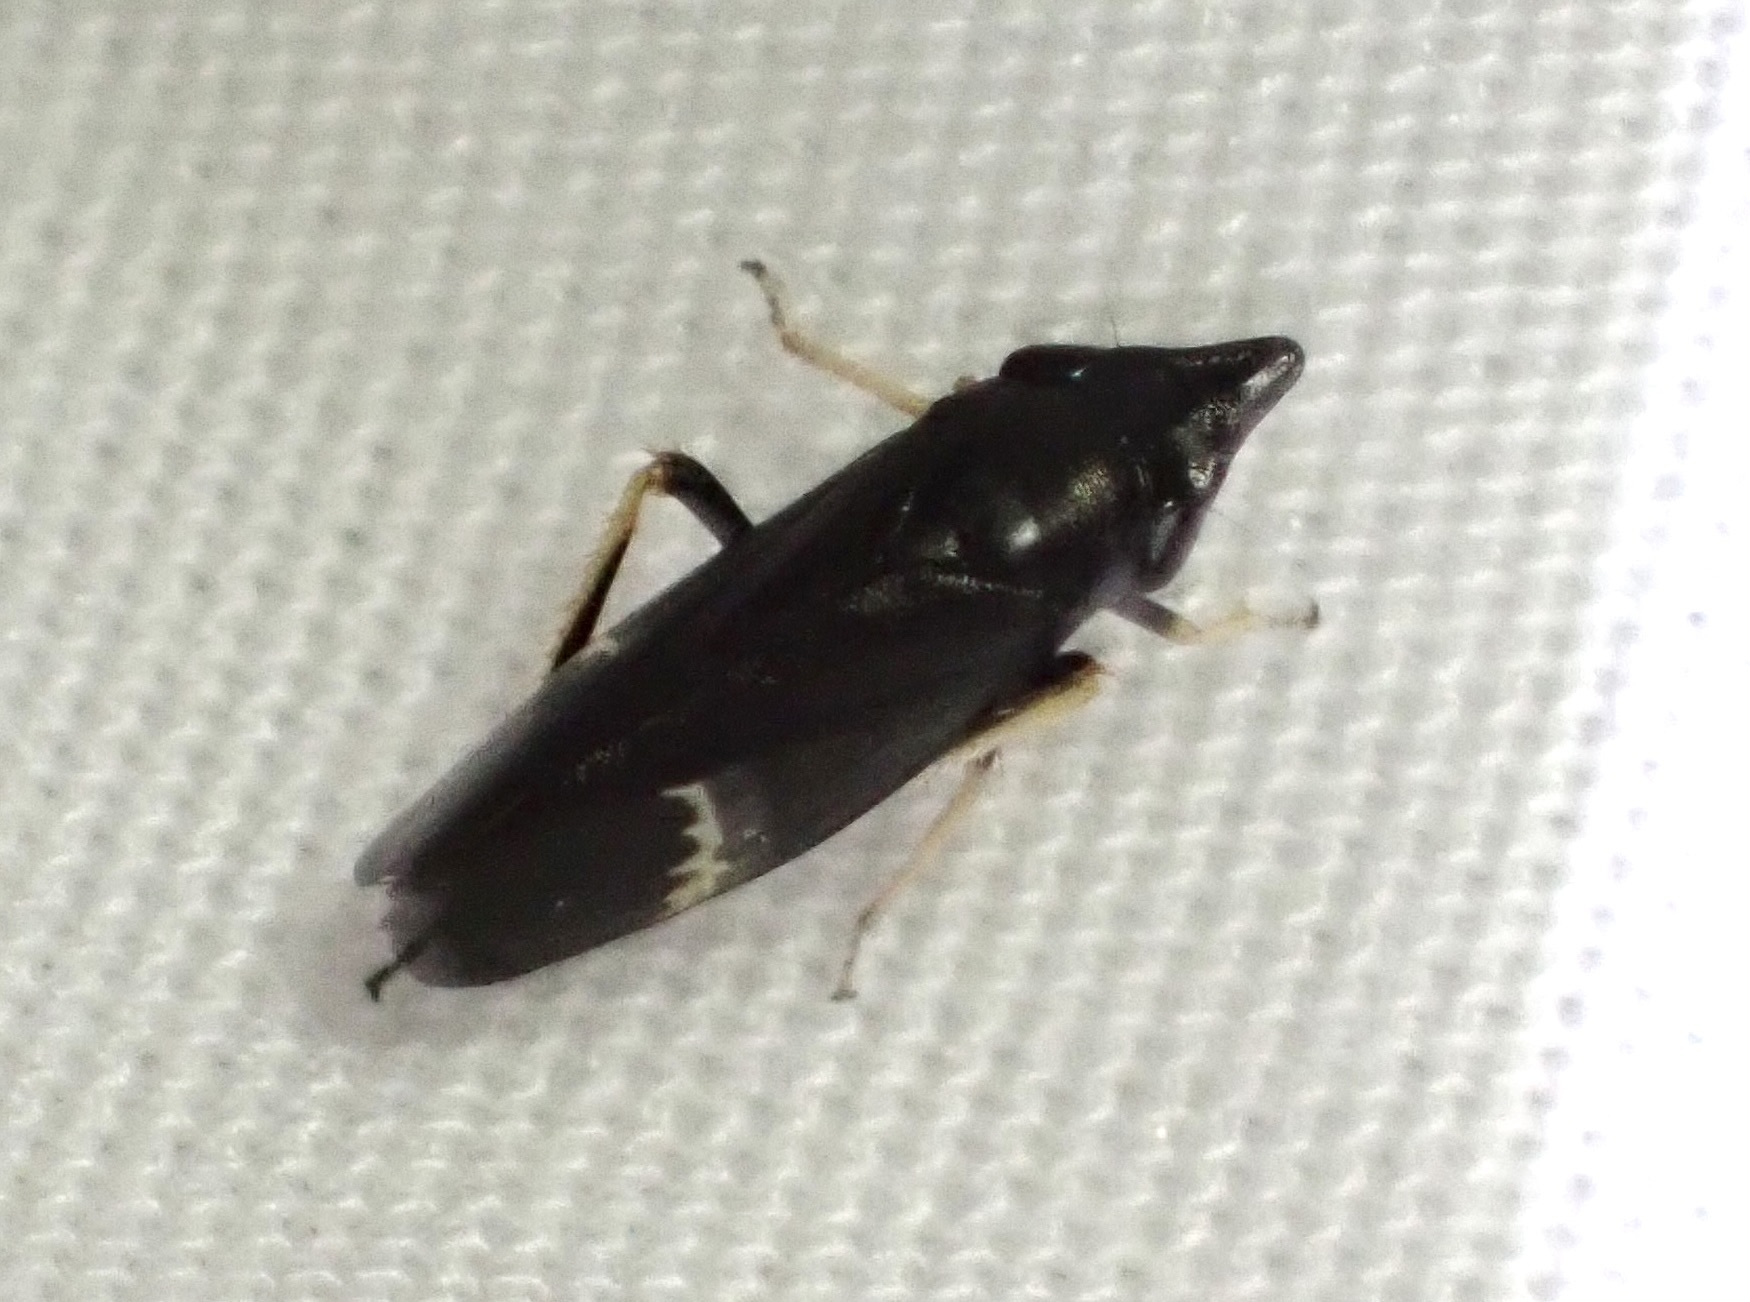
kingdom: Animalia
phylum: Arthropoda
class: Insecta
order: Hemiptera
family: Cicadellidae
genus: Cochlorhinus
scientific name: Cochlorhinus pluto
